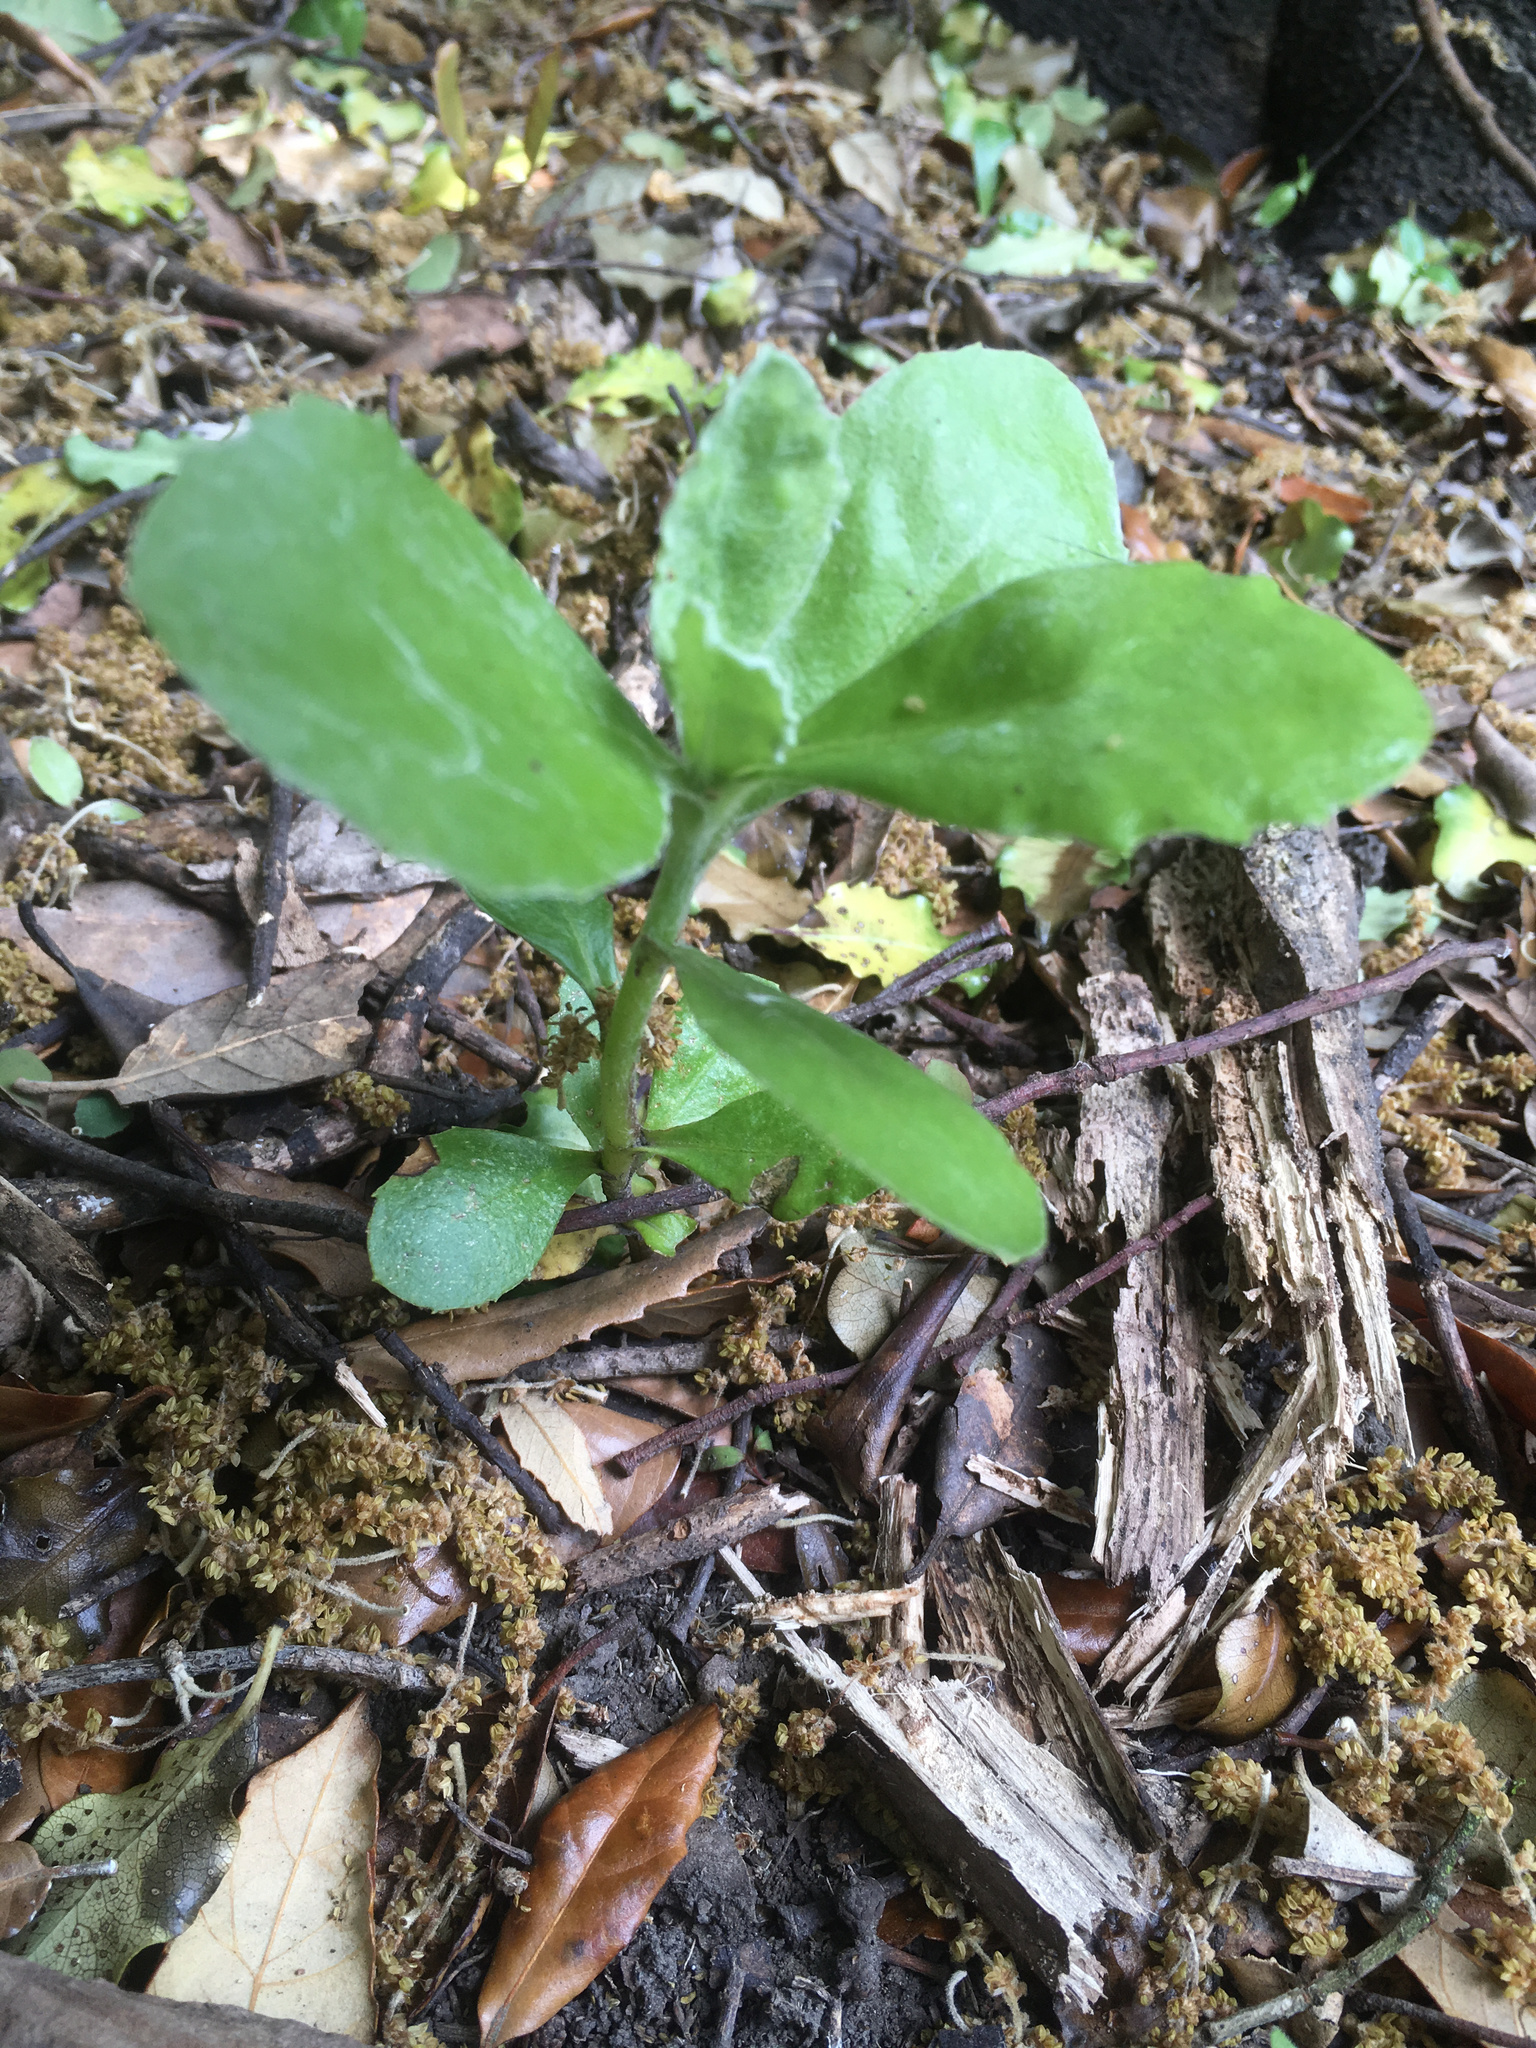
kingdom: Plantae
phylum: Tracheophyta
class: Magnoliopsida
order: Asterales
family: Asteraceae
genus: Osteospermum
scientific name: Osteospermum moniliferum
